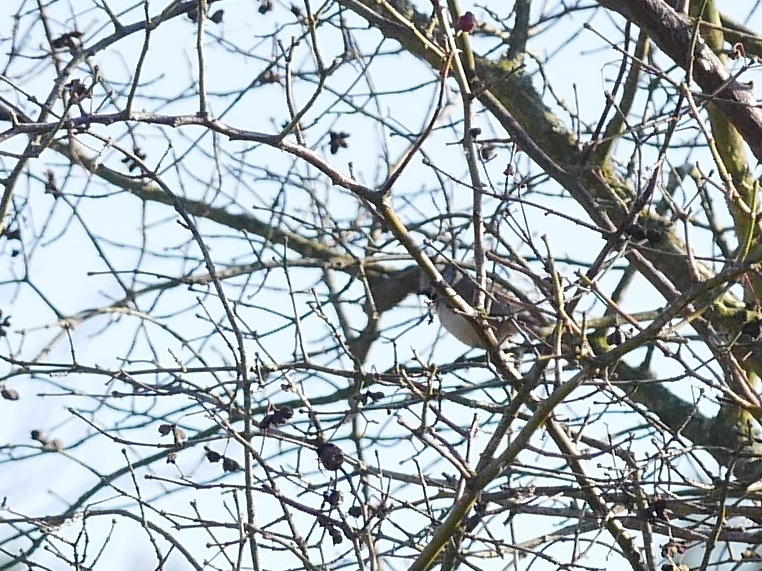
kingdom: Animalia
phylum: Chordata
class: Aves
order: Passeriformes
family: Paridae
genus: Lophophanes
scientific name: Lophophanes cristatus
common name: European crested tit
